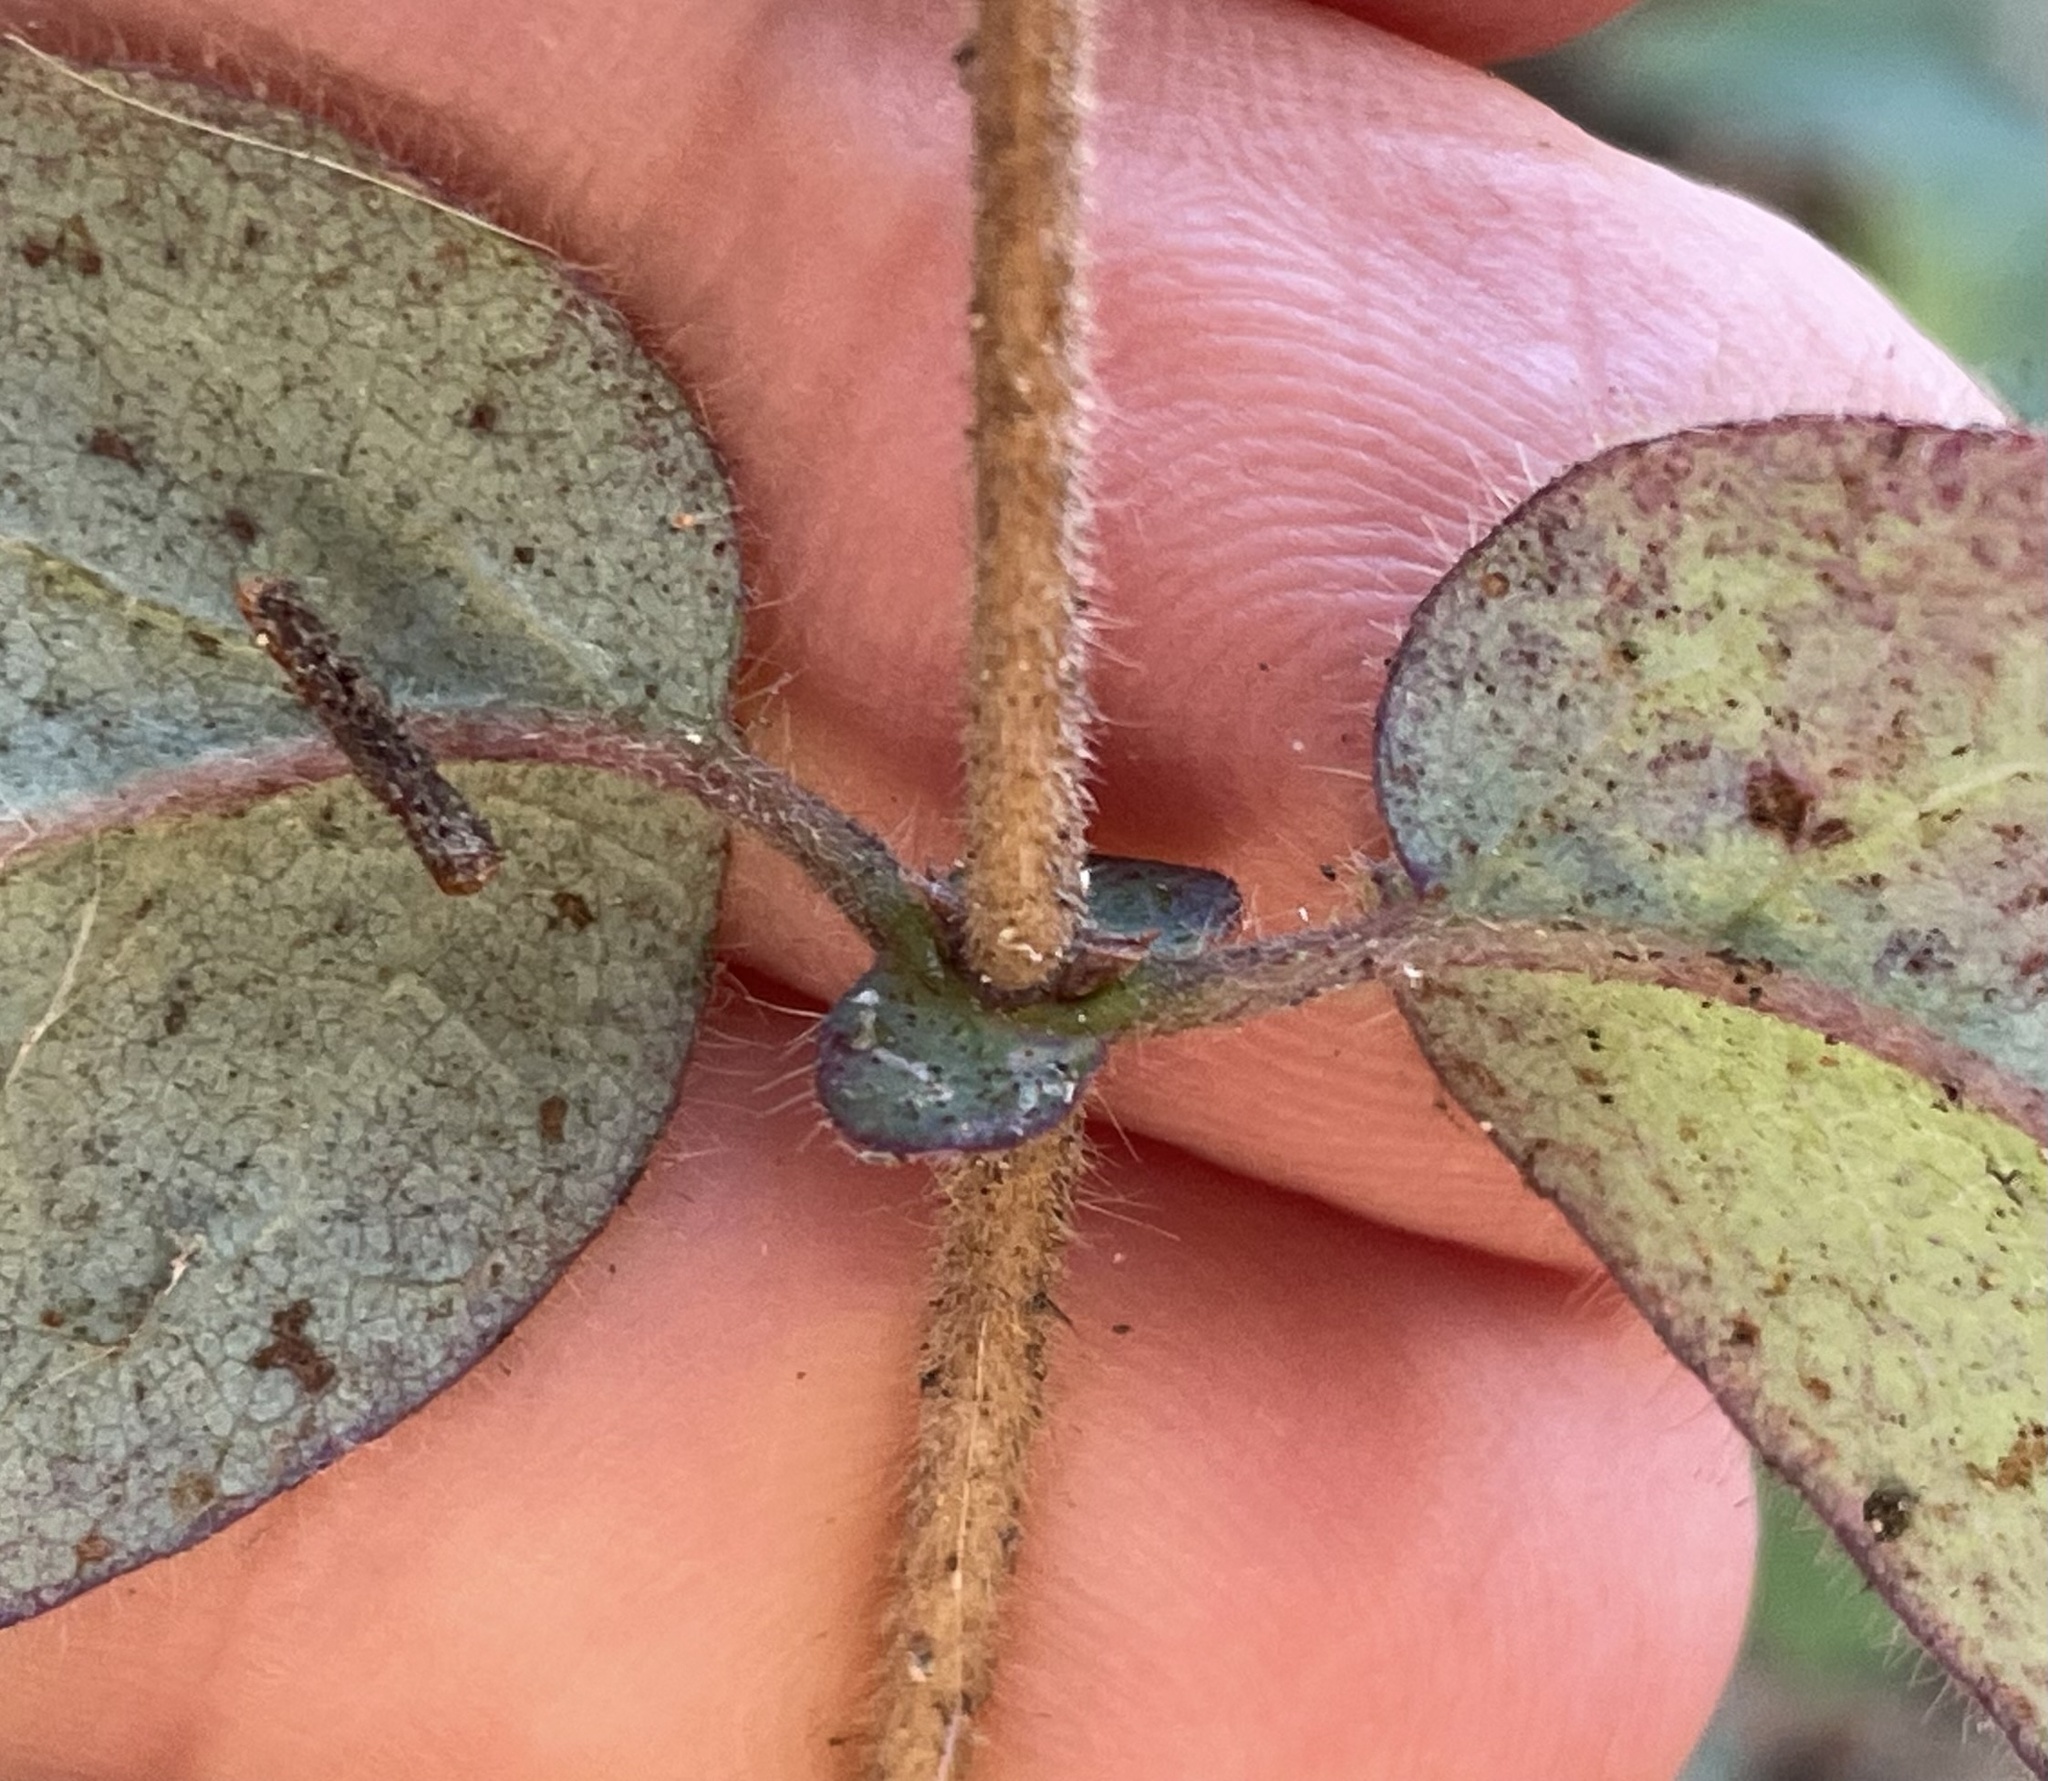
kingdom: Plantae
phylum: Tracheophyta
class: Magnoliopsida
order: Dipsacales
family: Caprifoliaceae
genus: Lonicera
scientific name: Lonicera hispidula
